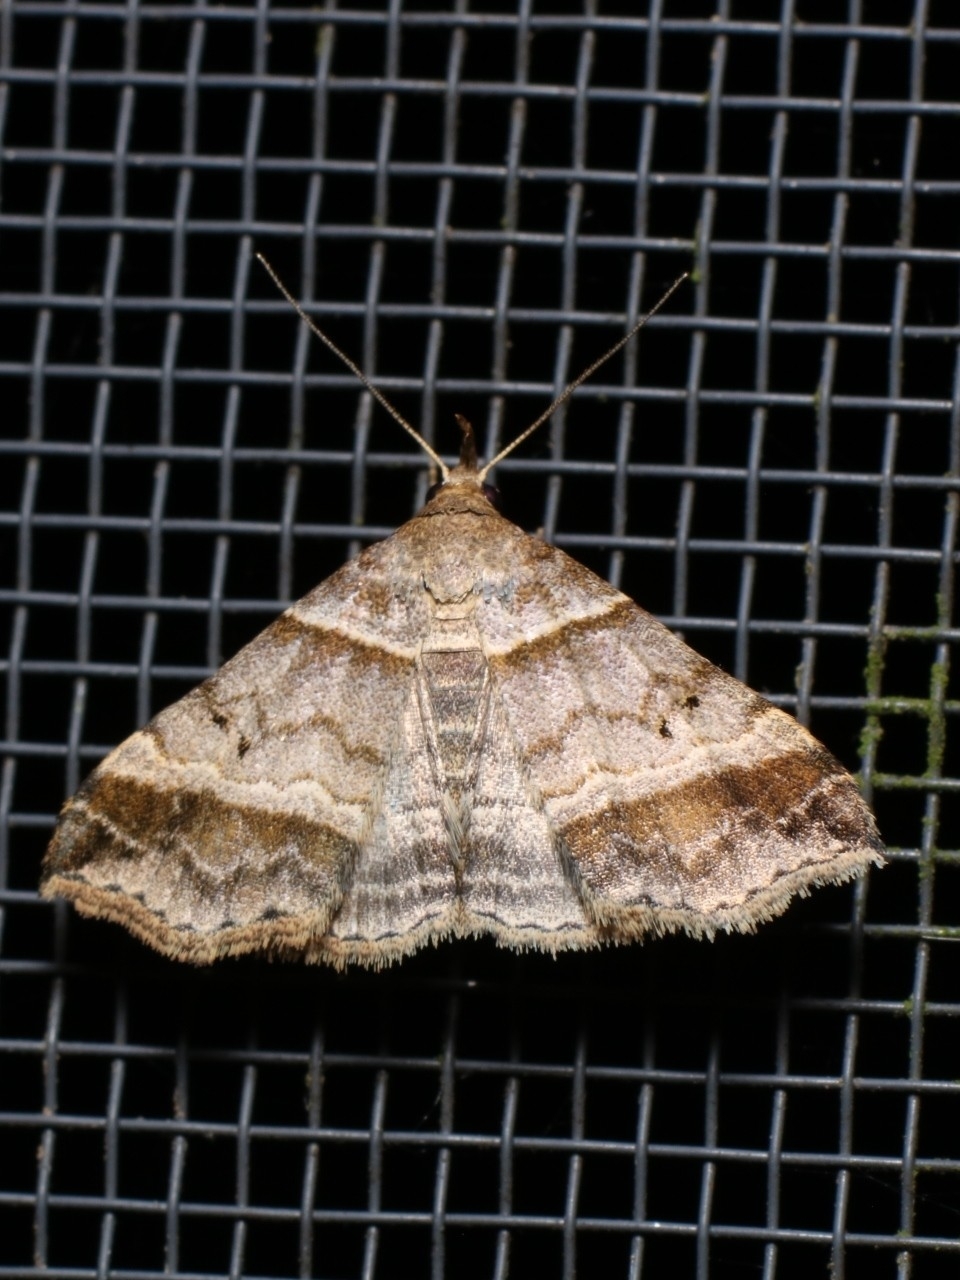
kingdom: Animalia
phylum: Arthropoda
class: Insecta
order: Lepidoptera
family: Erebidae
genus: Phaeolita
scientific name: Phaeolita pyramusalis
